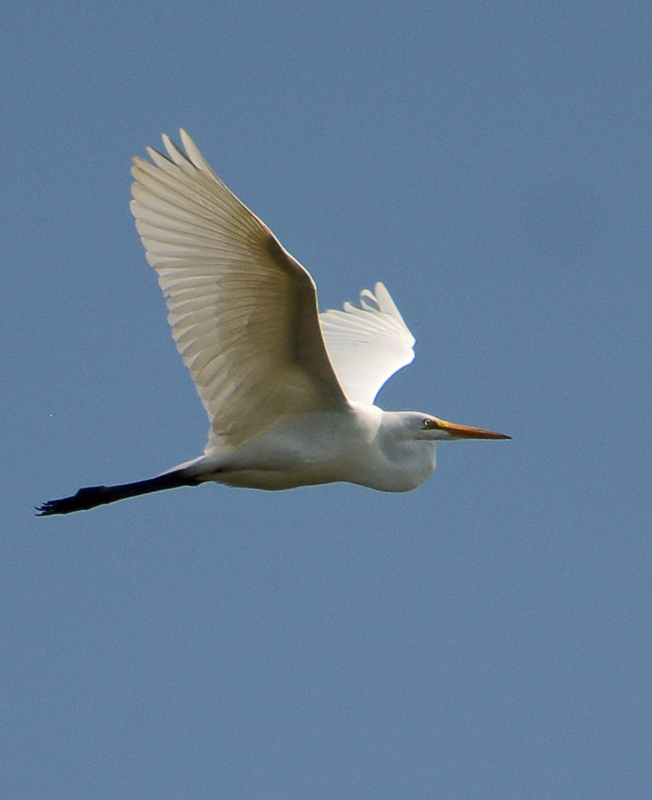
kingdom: Animalia
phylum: Chordata
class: Aves
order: Pelecaniformes
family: Ardeidae
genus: Ardea
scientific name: Ardea alba
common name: Great egret
